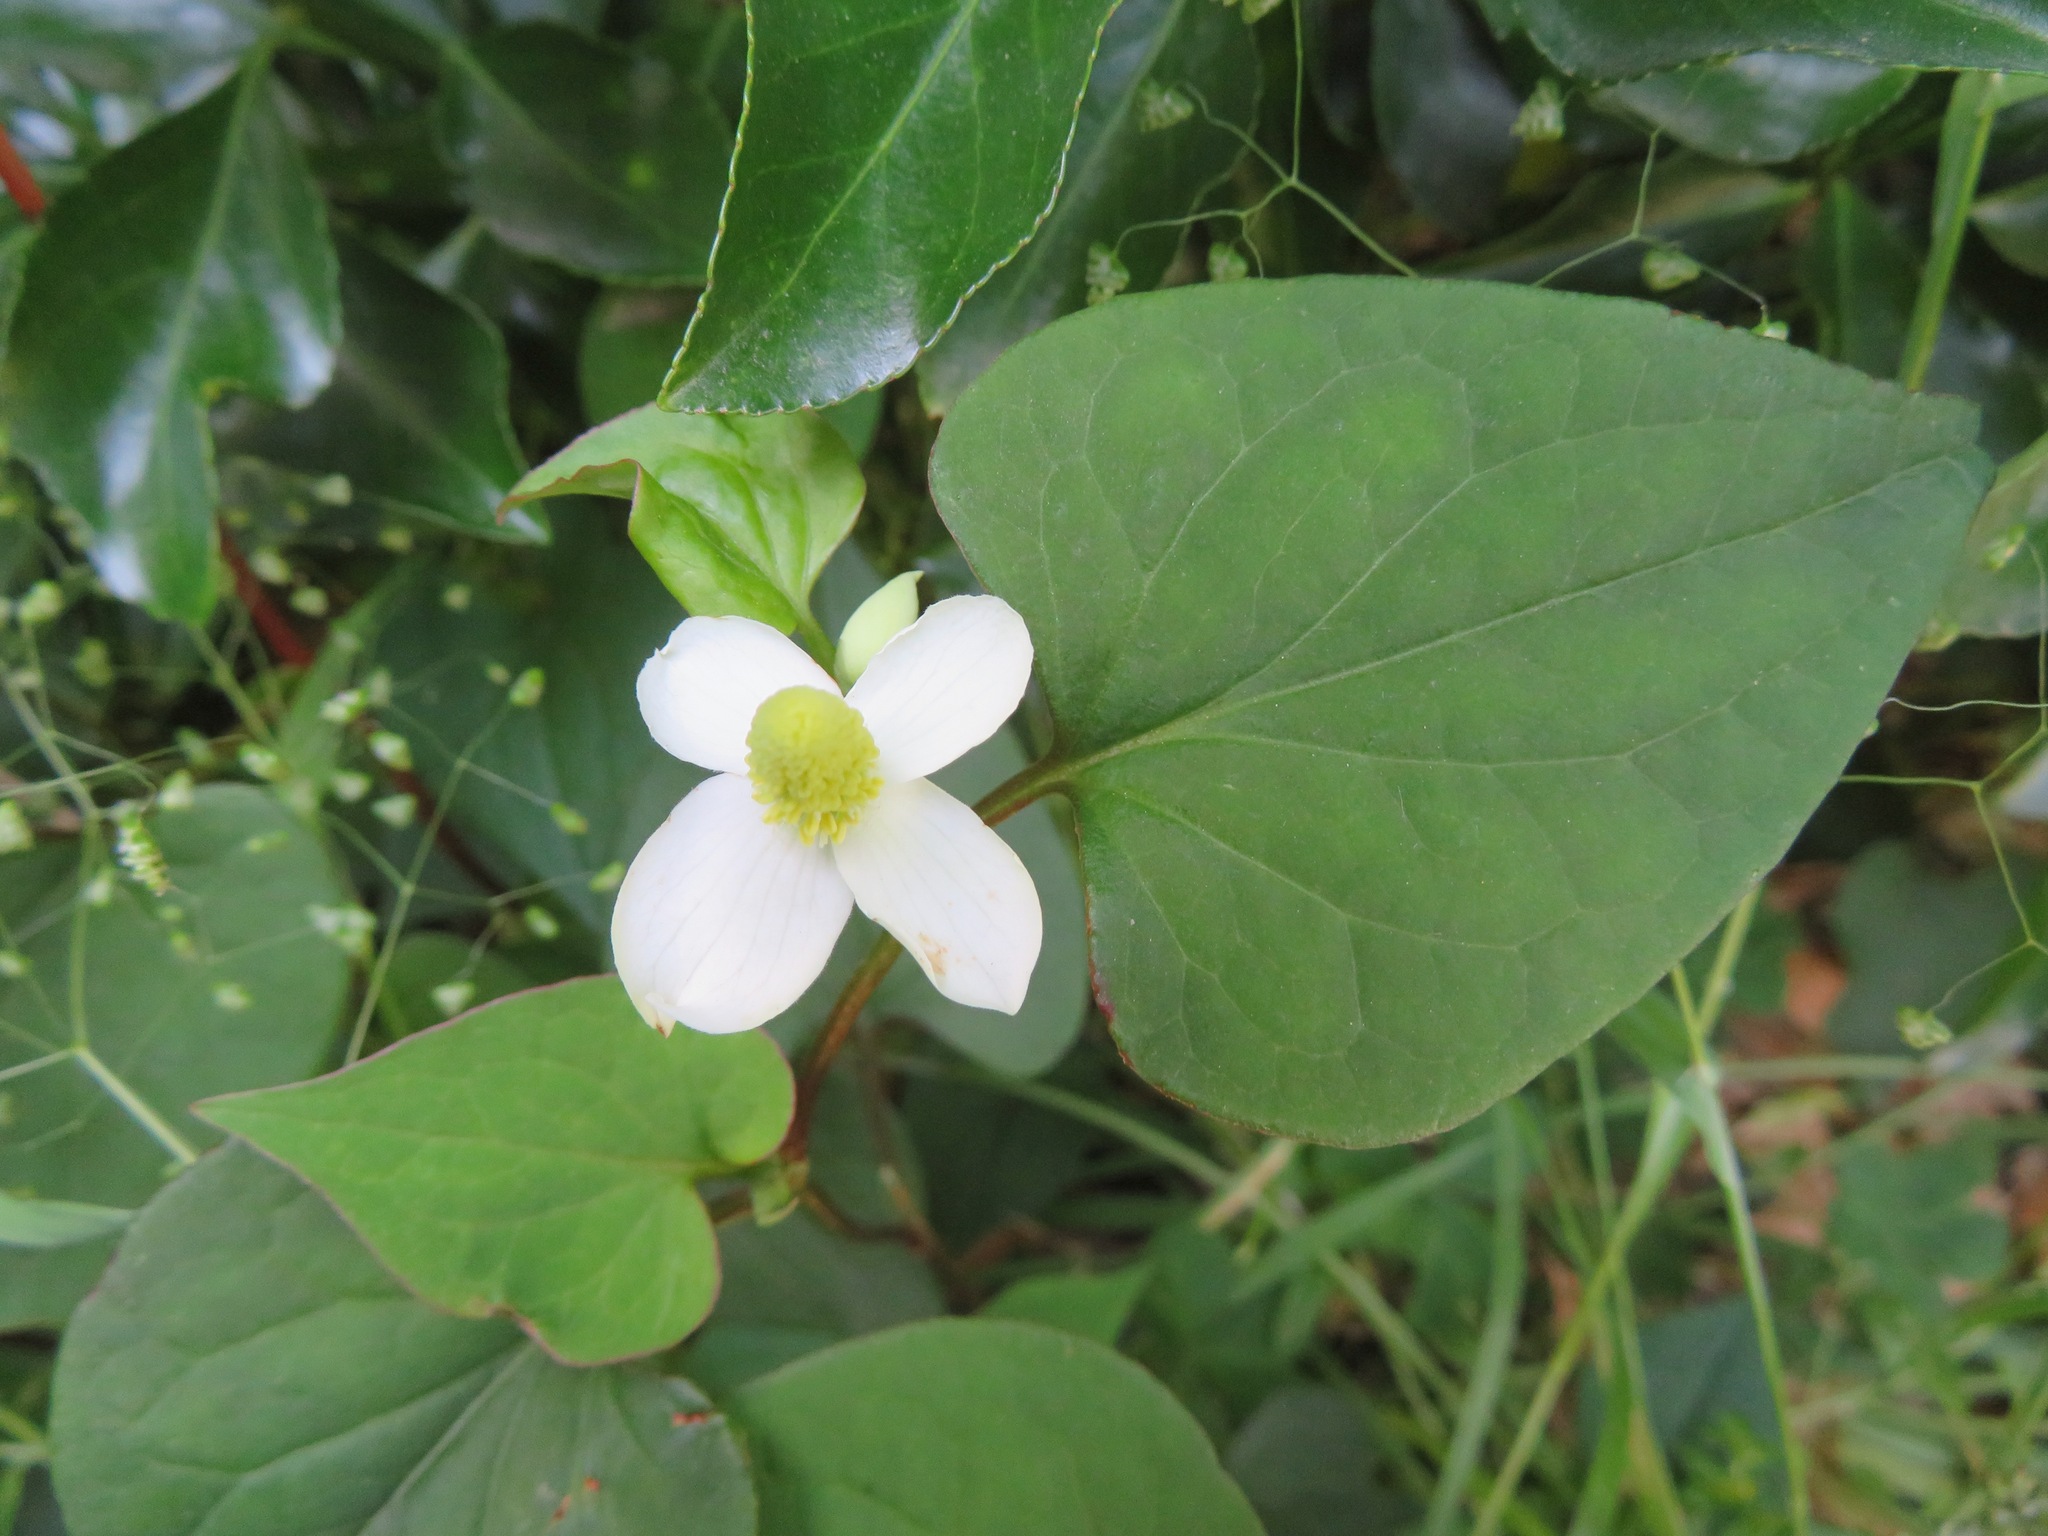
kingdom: Plantae
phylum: Tracheophyta
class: Magnoliopsida
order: Piperales
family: Saururaceae
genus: Houttuynia
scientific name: Houttuynia cordata
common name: Chameleon
